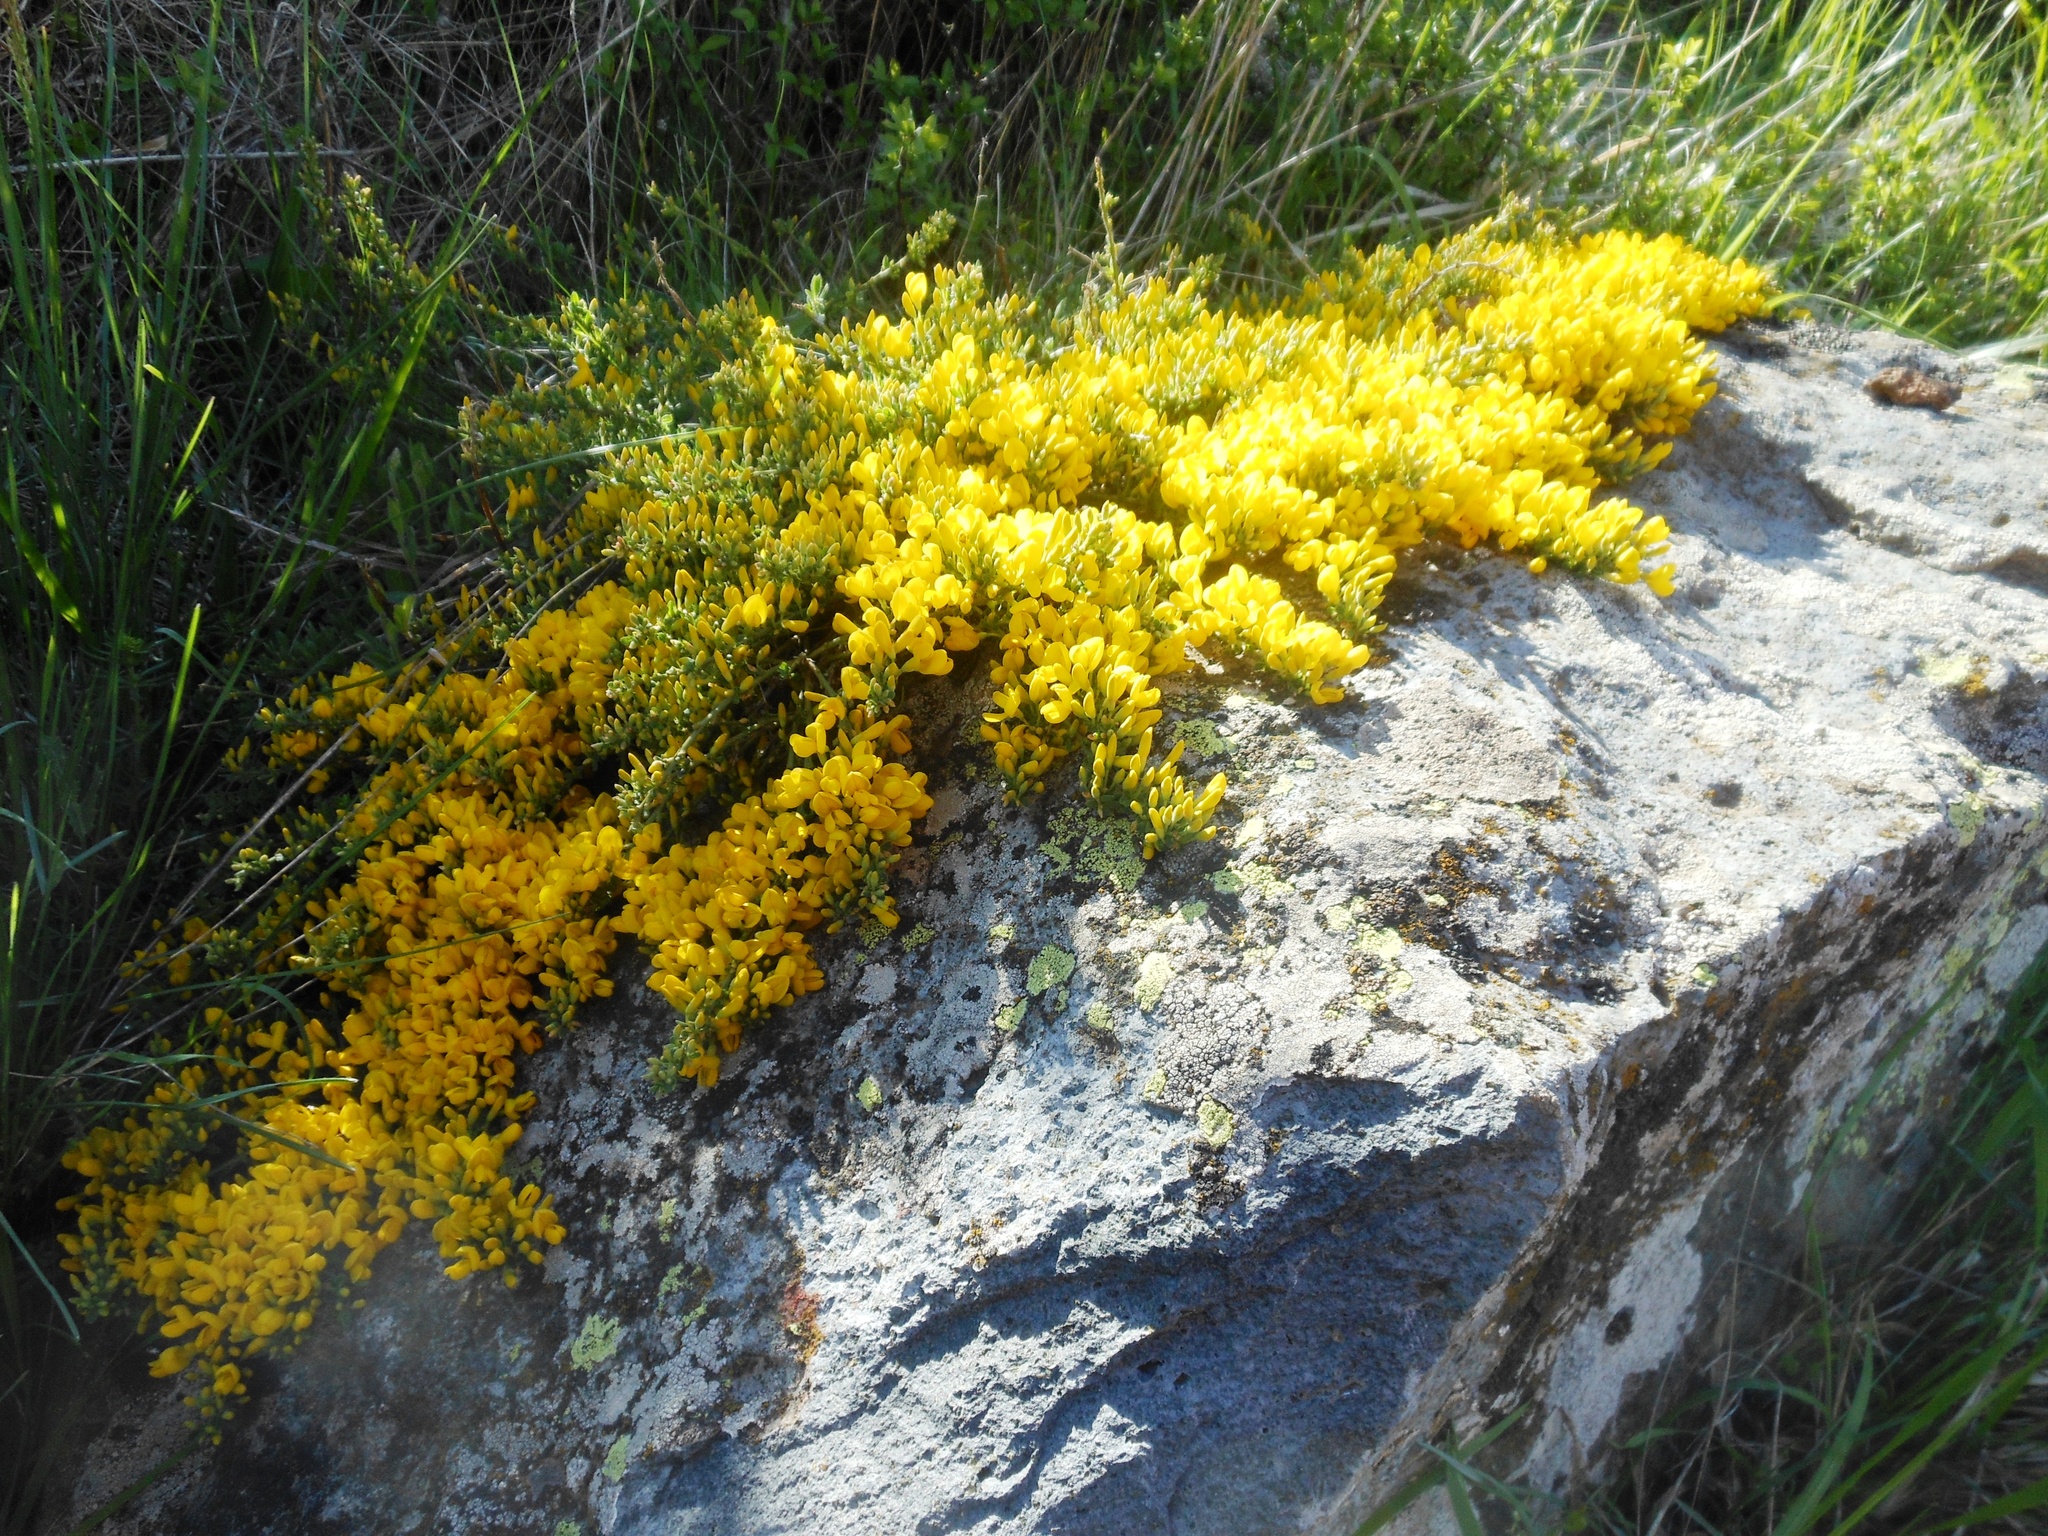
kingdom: Plantae
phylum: Tracheophyta
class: Magnoliopsida
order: Fabales
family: Fabaceae
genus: Genista
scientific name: Genista pilosa
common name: Hairy greenweed
